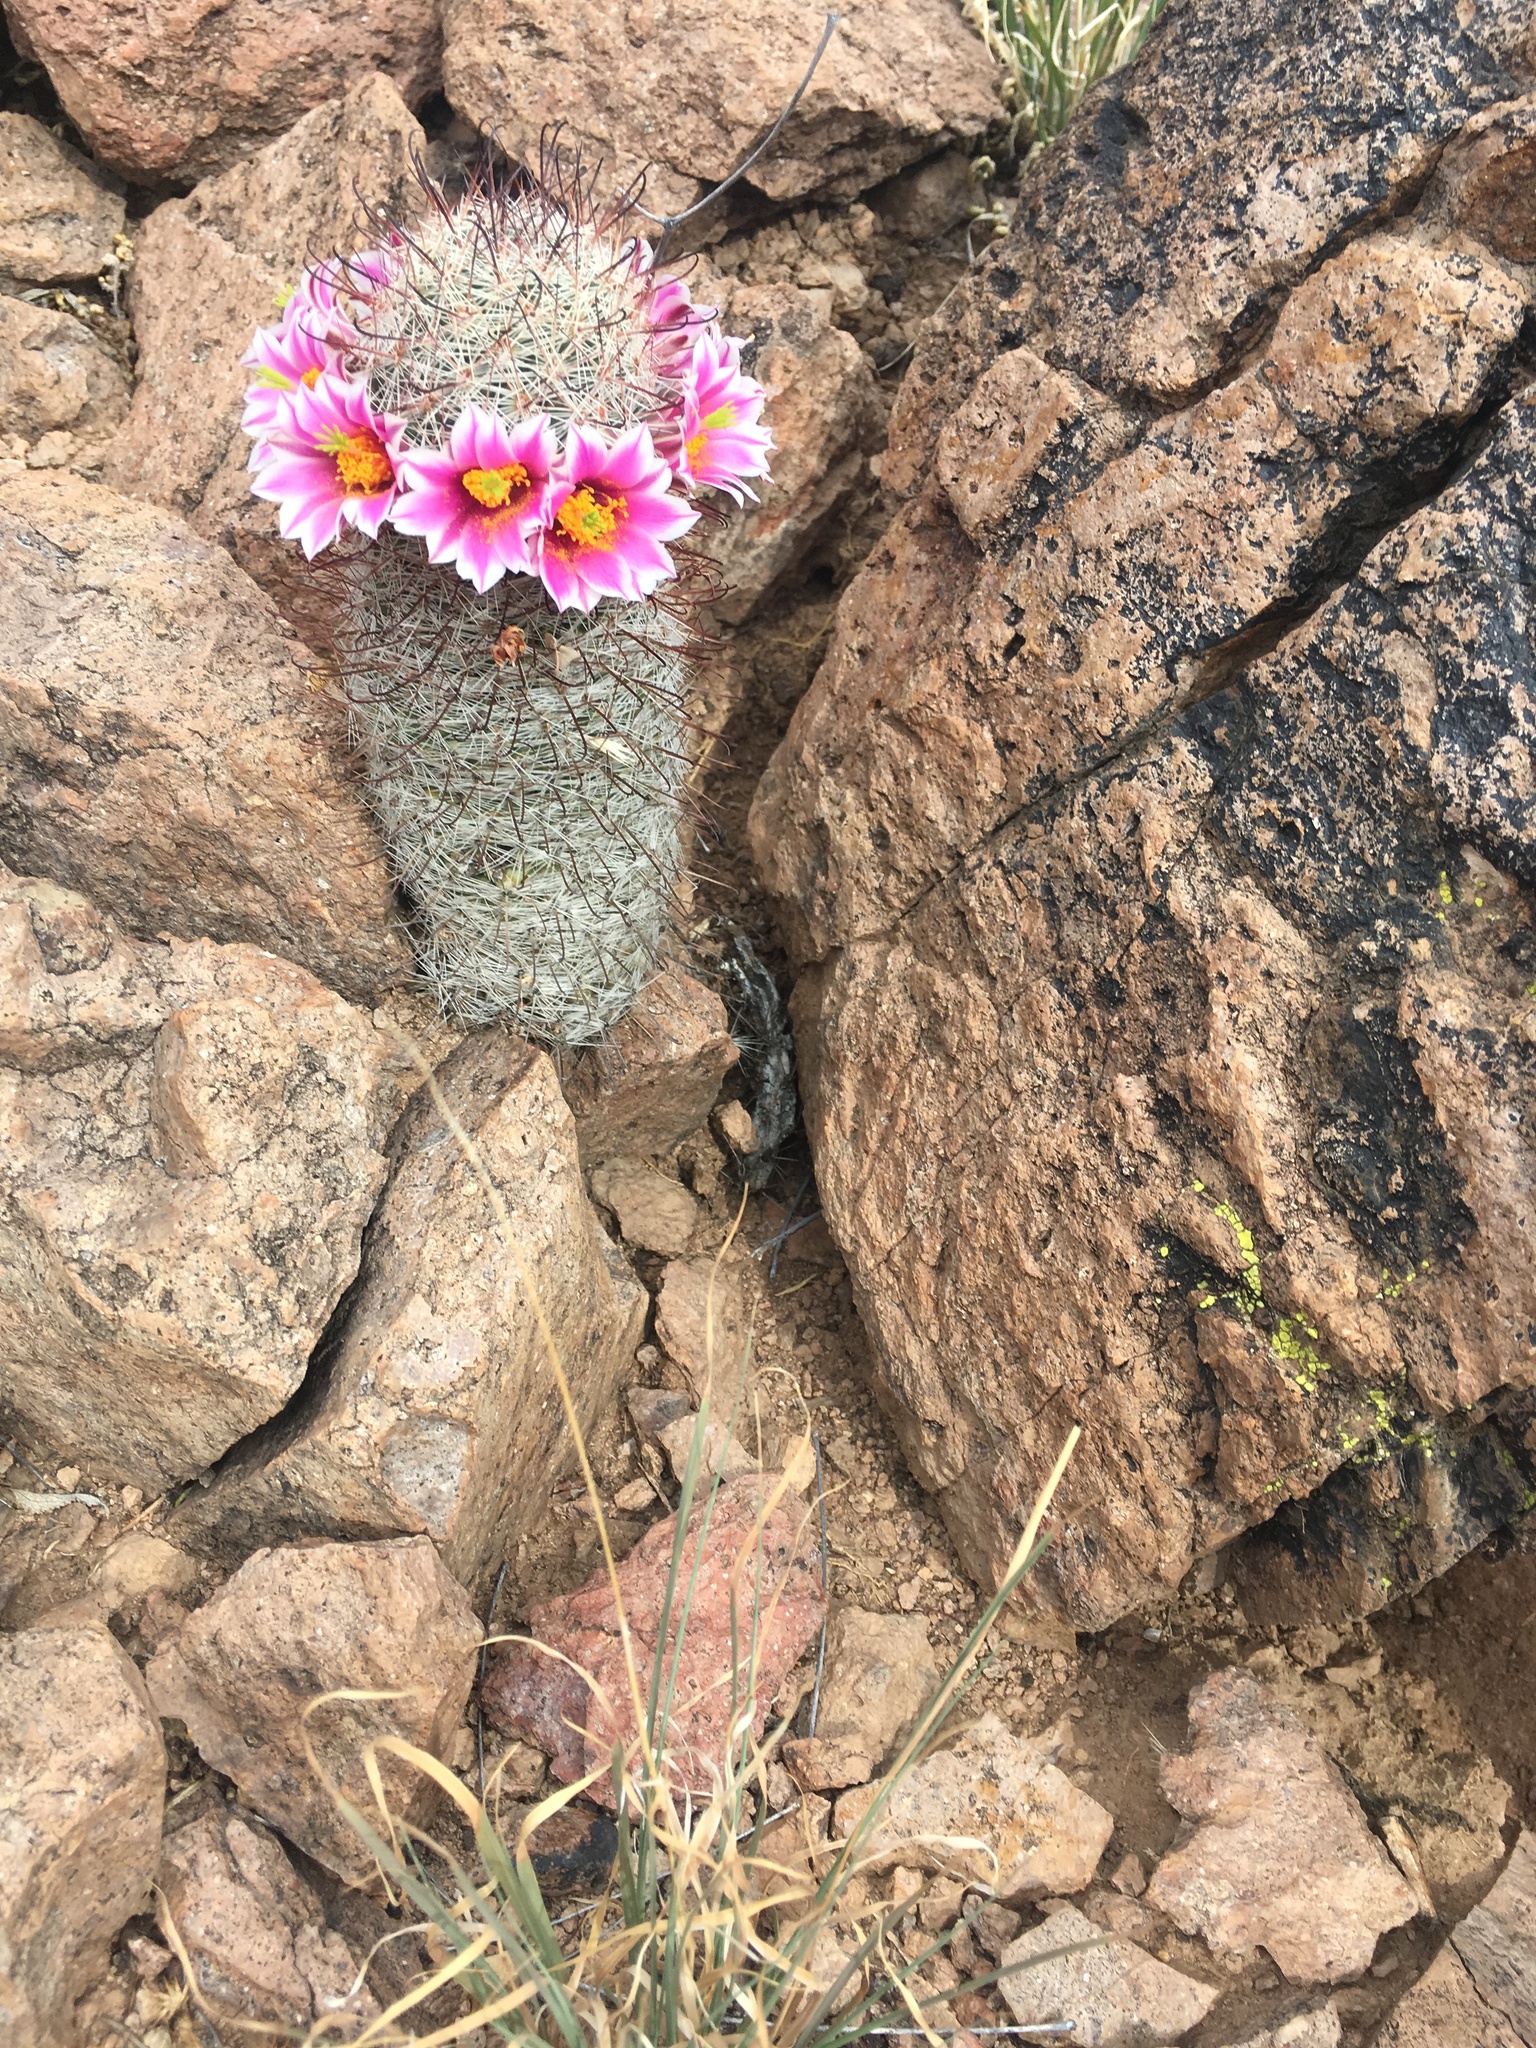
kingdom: Plantae
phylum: Tracheophyta
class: Magnoliopsida
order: Caryophyllales
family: Cactaceae
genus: Cochemiea
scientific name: Cochemiea grahamii
